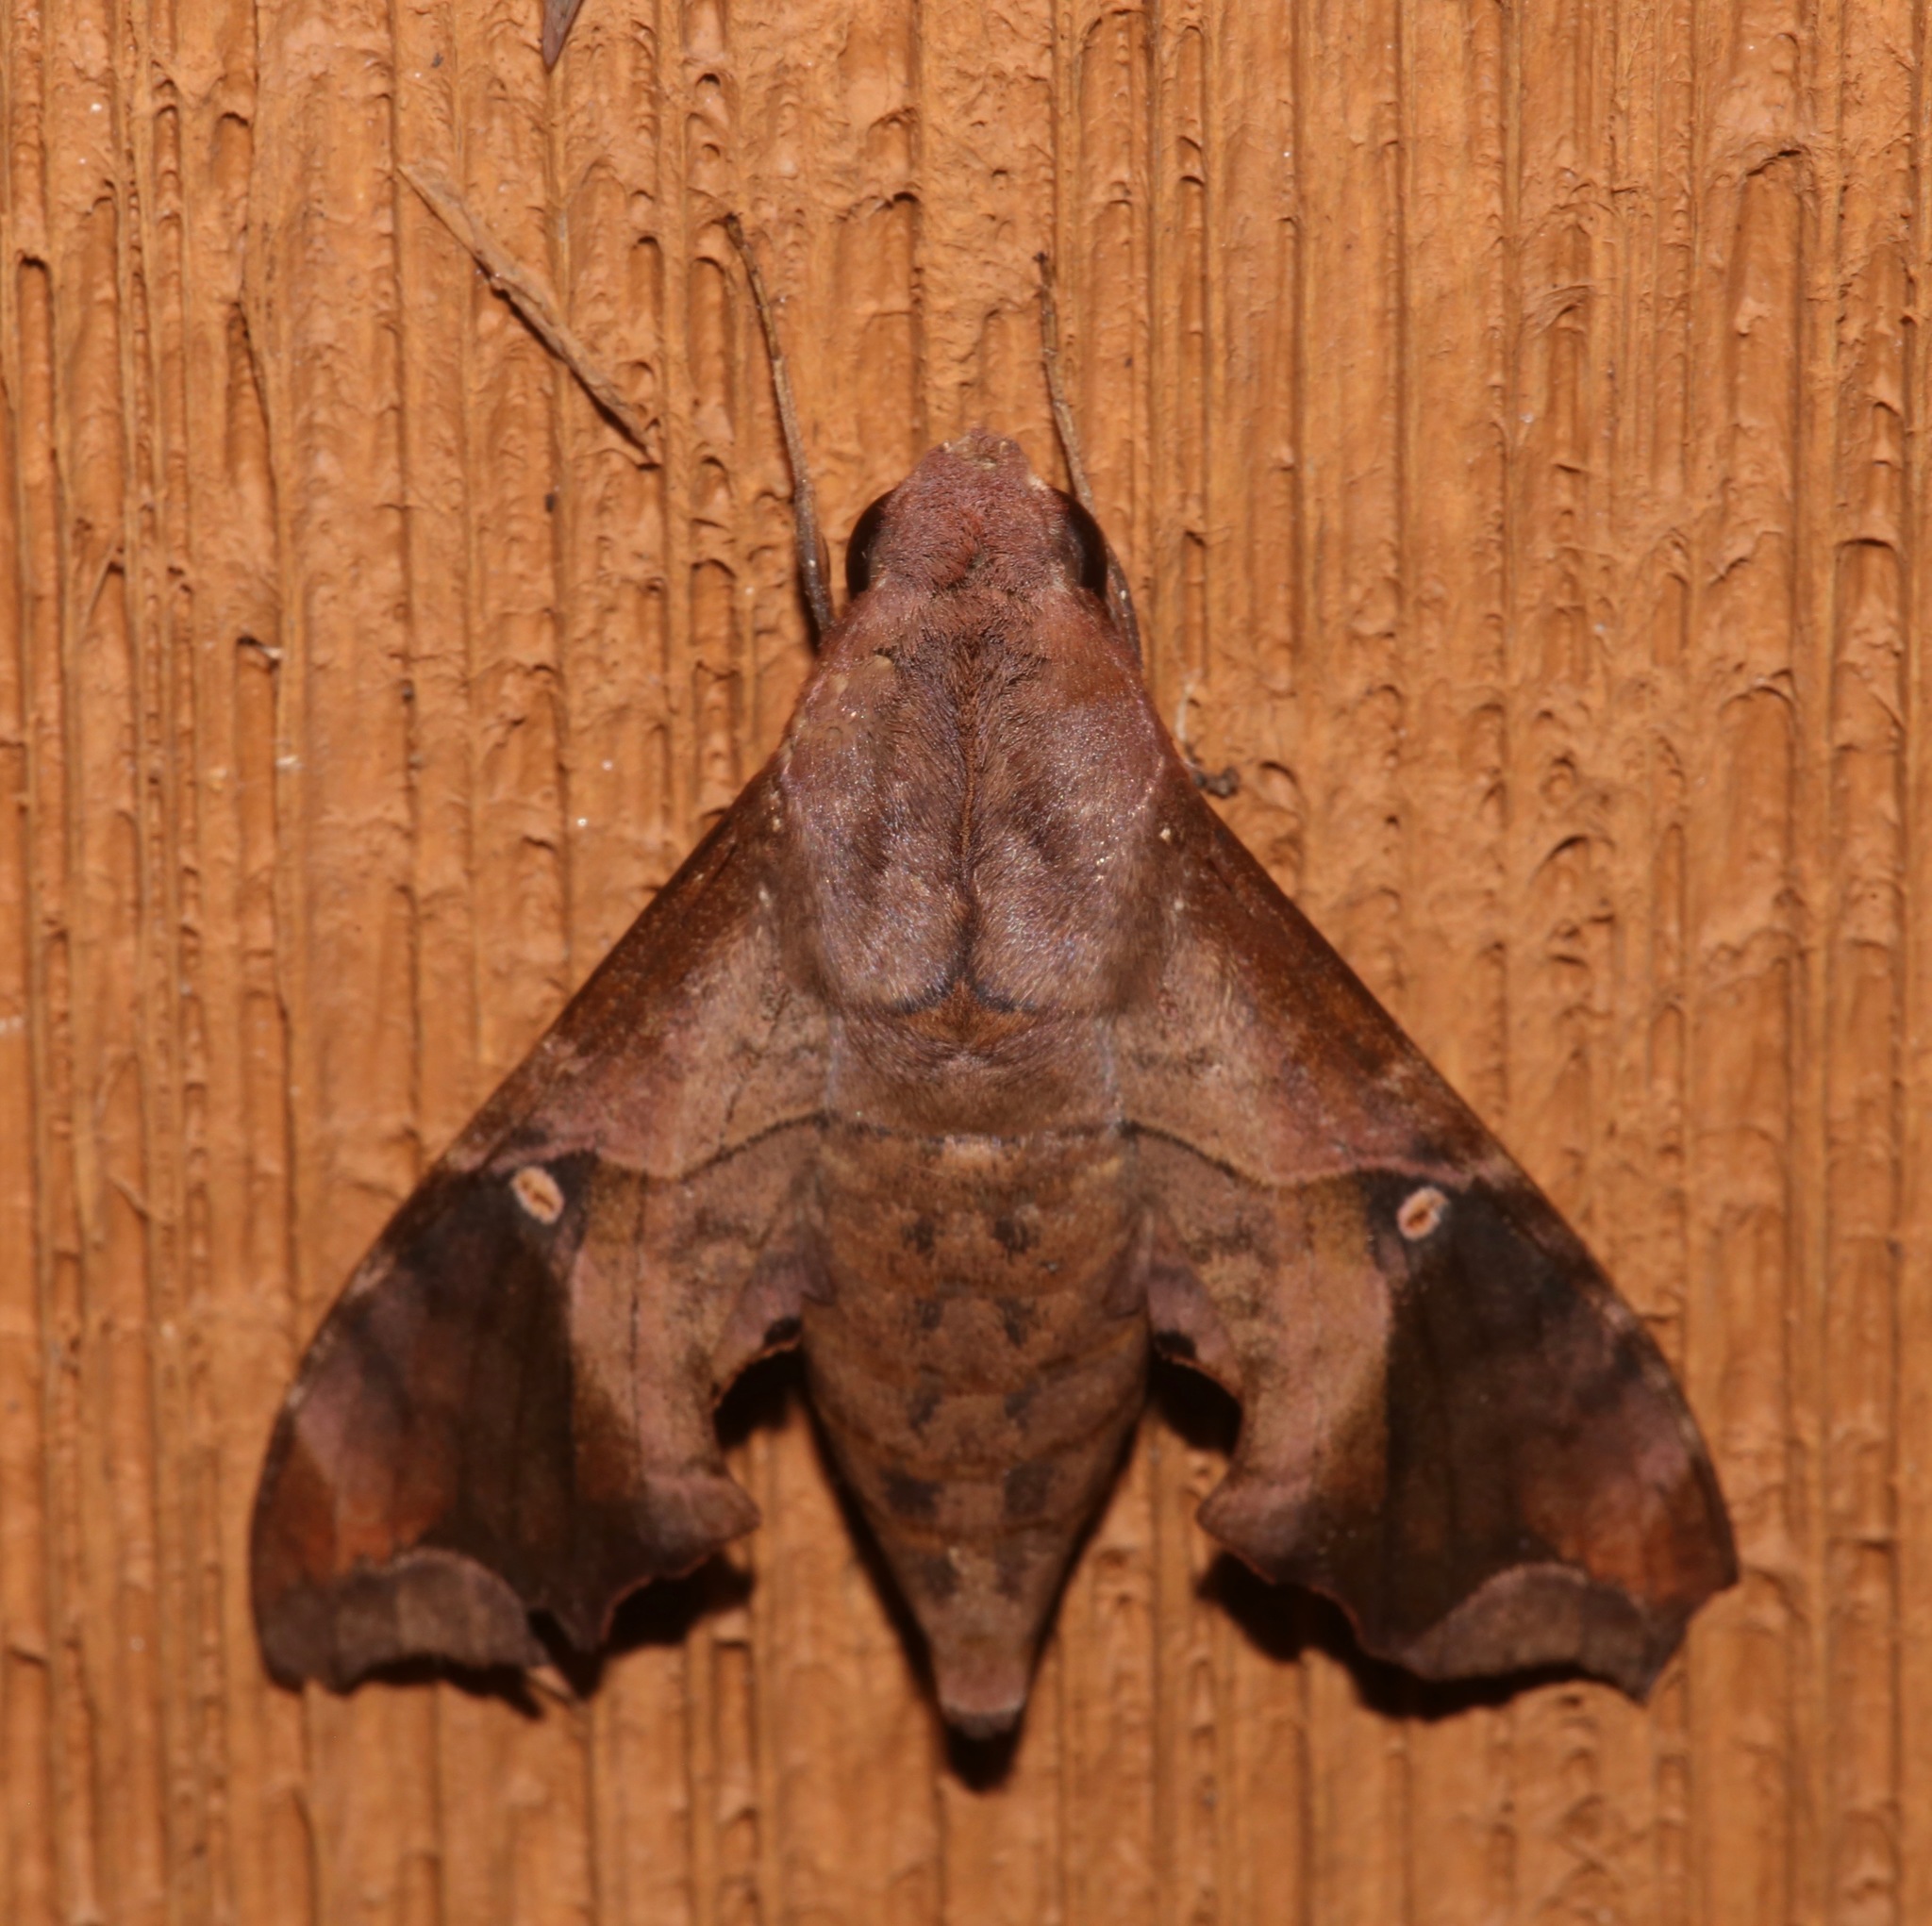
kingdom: Animalia
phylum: Arthropoda
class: Insecta
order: Lepidoptera
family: Sphingidae
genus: Enyo
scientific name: Enyo lugubris
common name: Mournful sphinx
